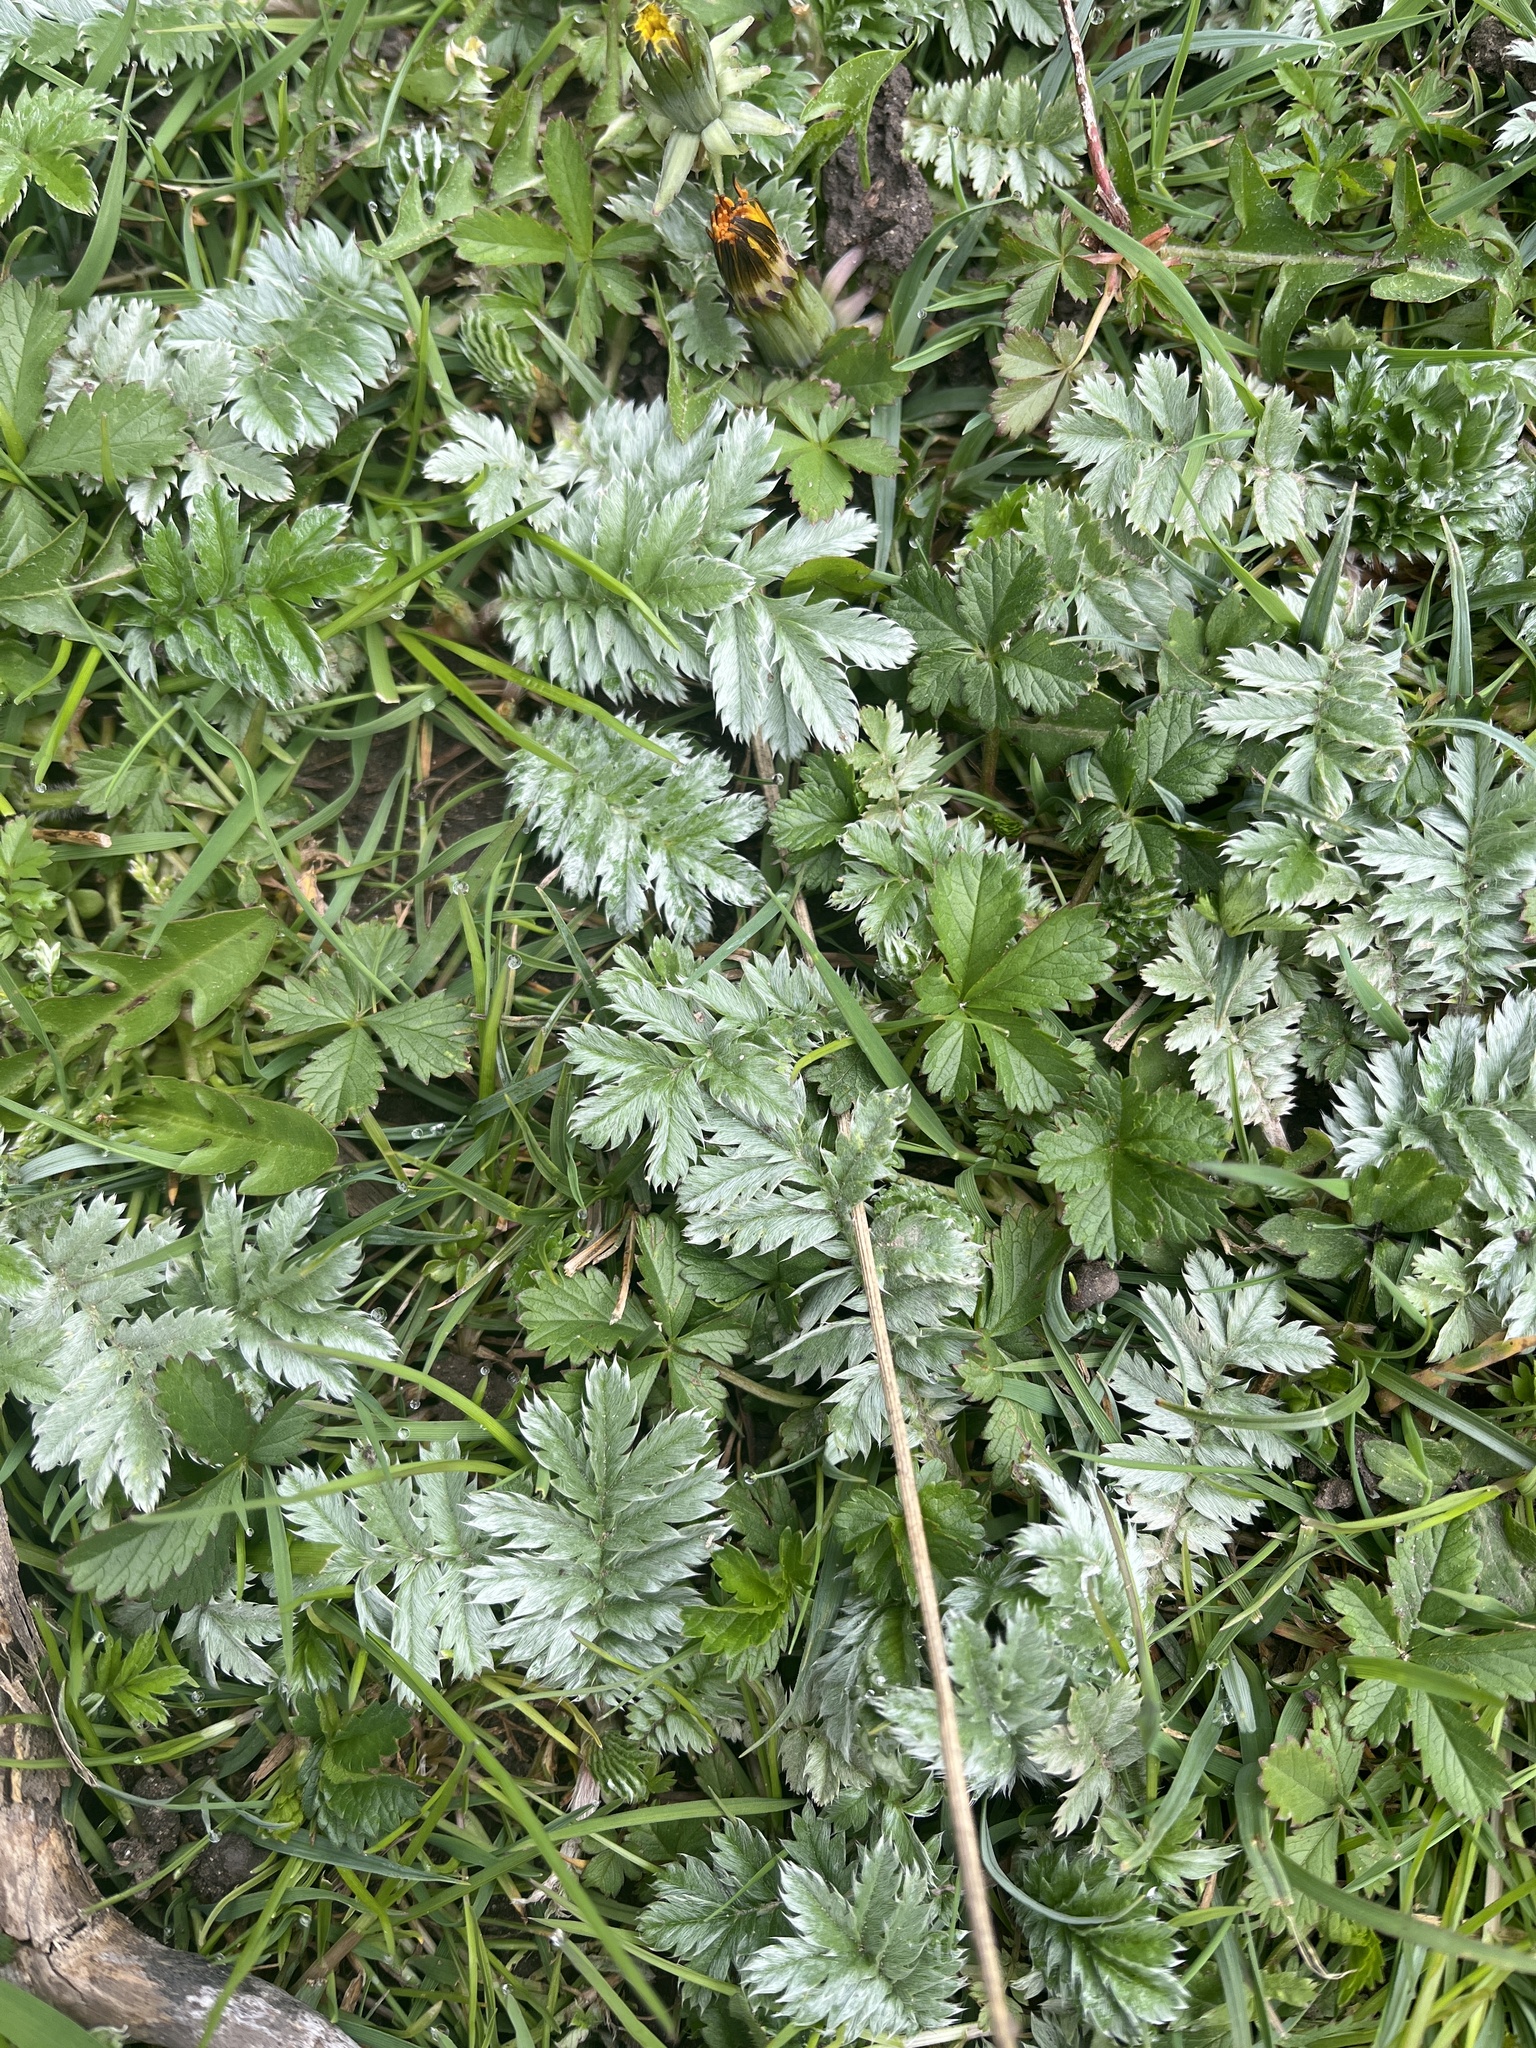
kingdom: Plantae
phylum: Tracheophyta
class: Magnoliopsida
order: Rosales
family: Rosaceae
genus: Argentina
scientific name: Argentina anserina
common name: Common silverweed
